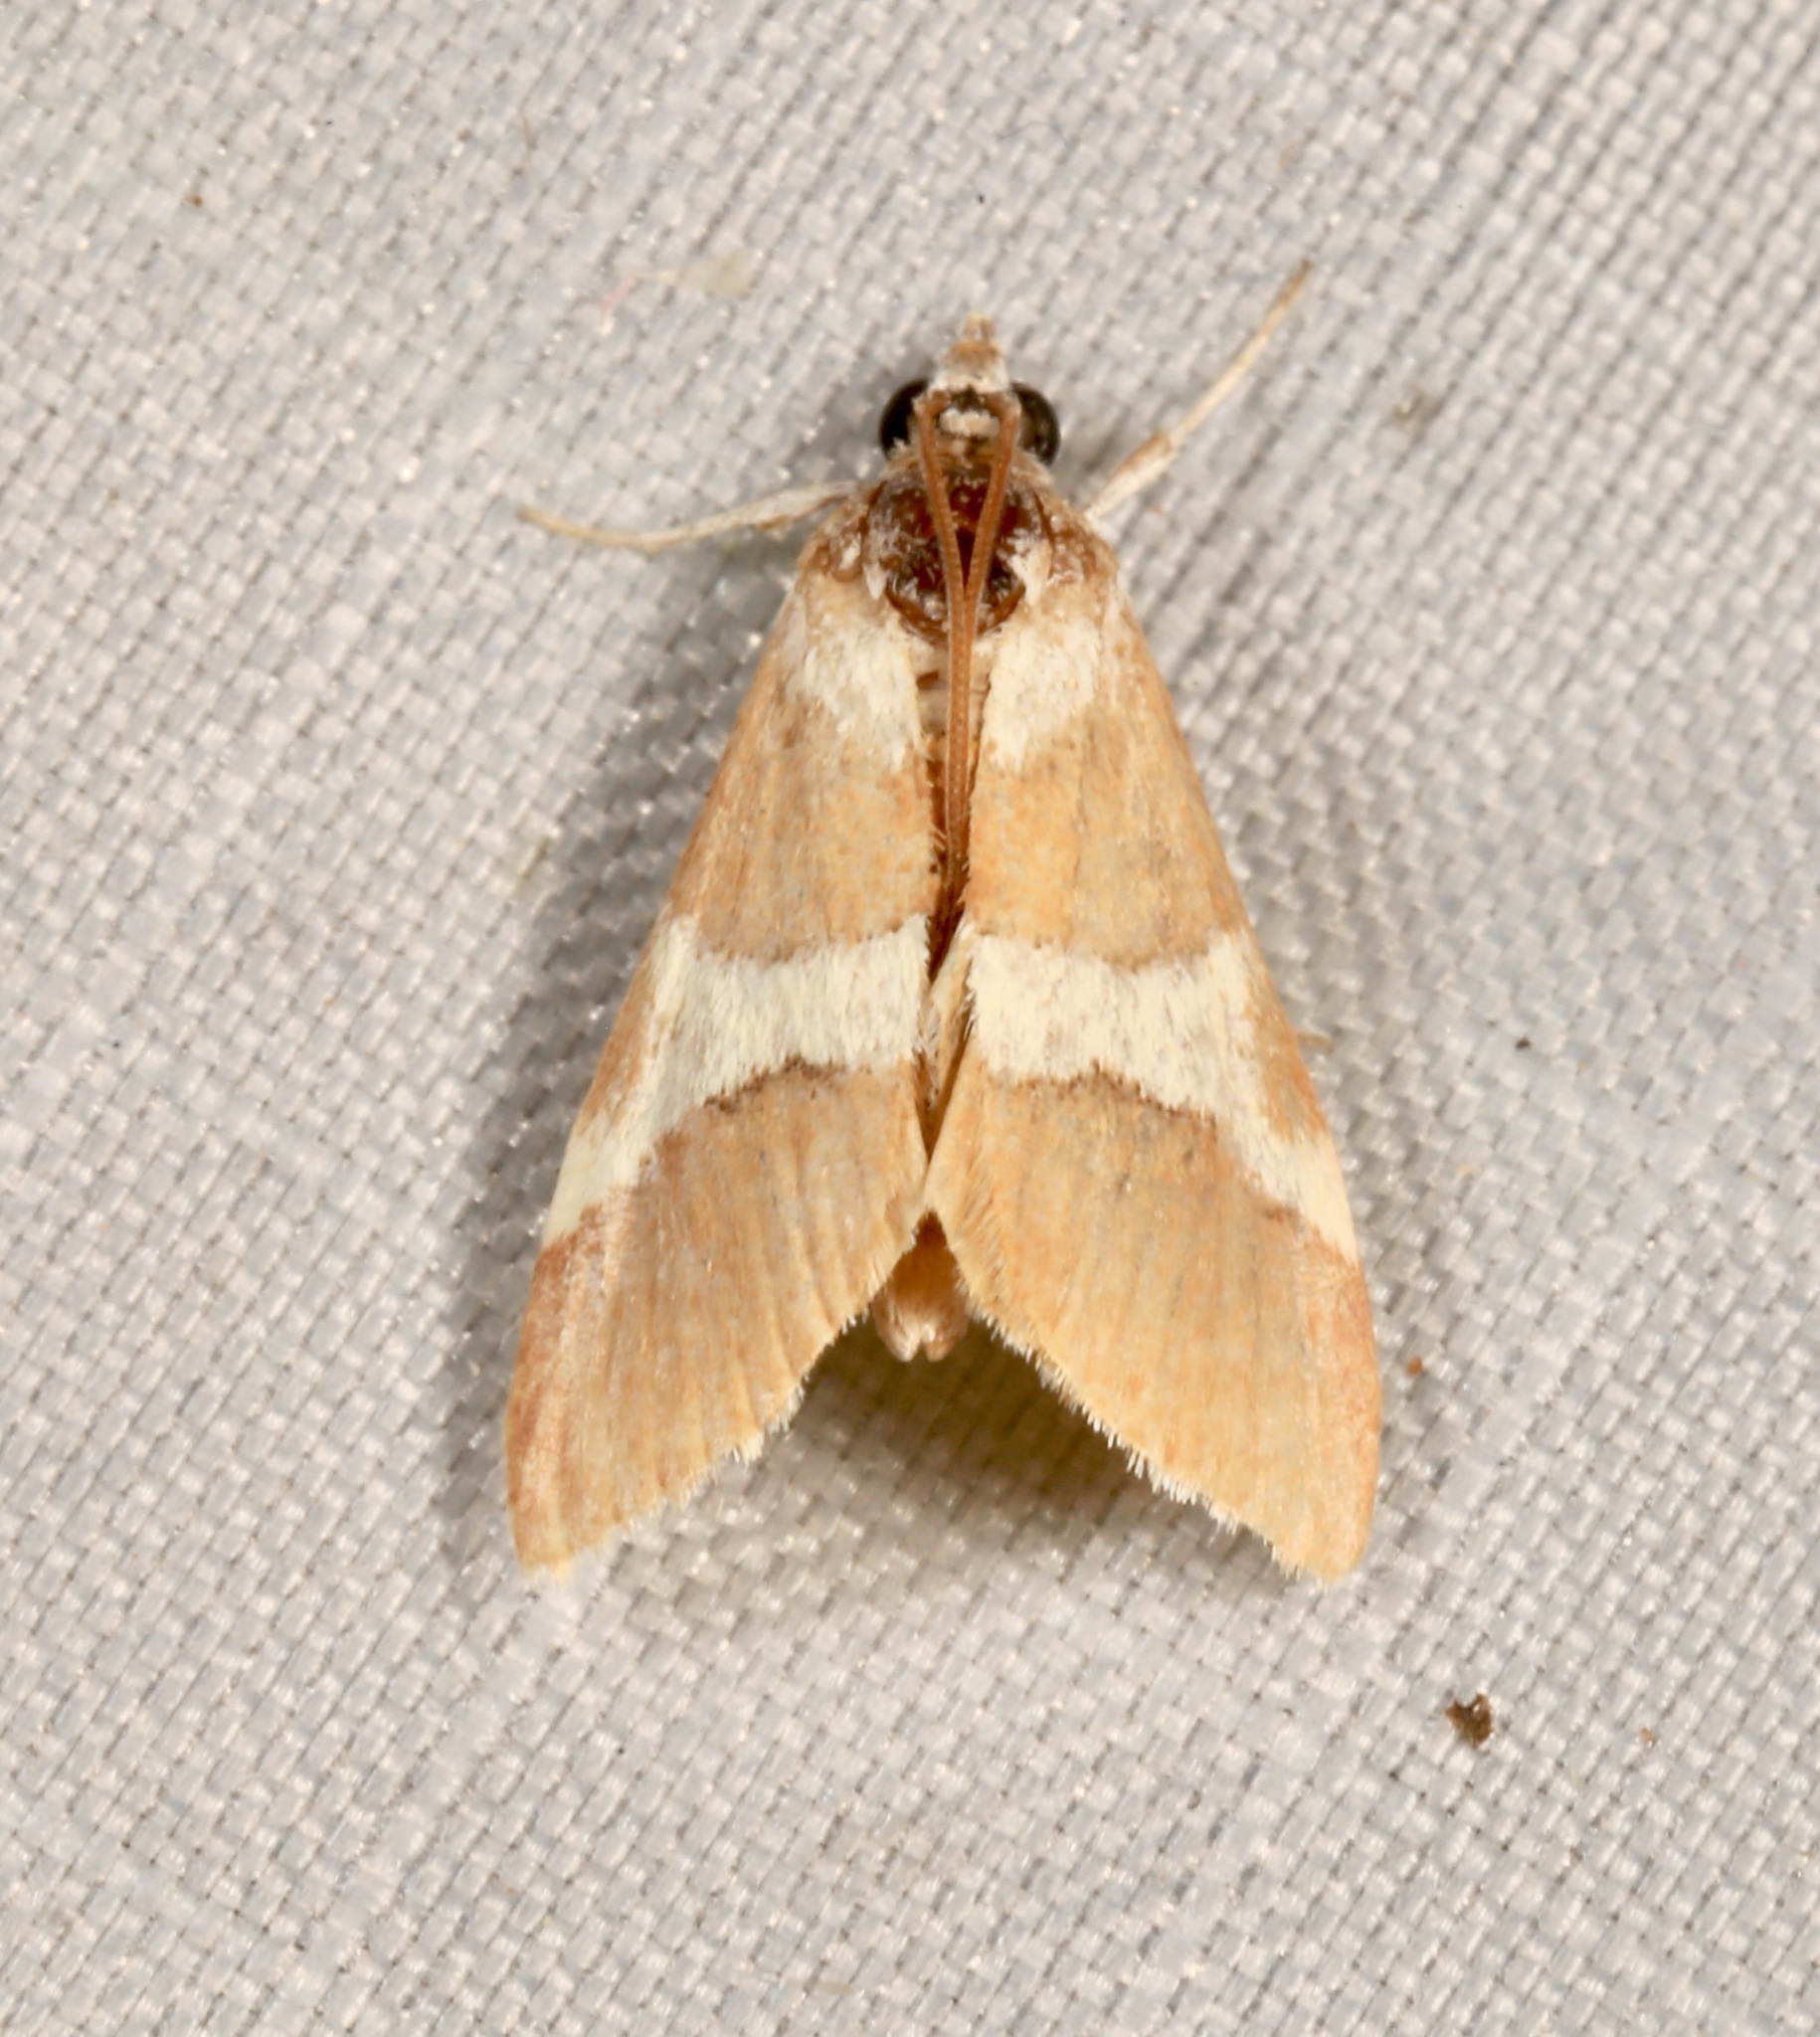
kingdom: Animalia
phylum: Arthropoda
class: Insecta
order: Lepidoptera
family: Crambidae
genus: Jativa
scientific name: Jativa castanealis
